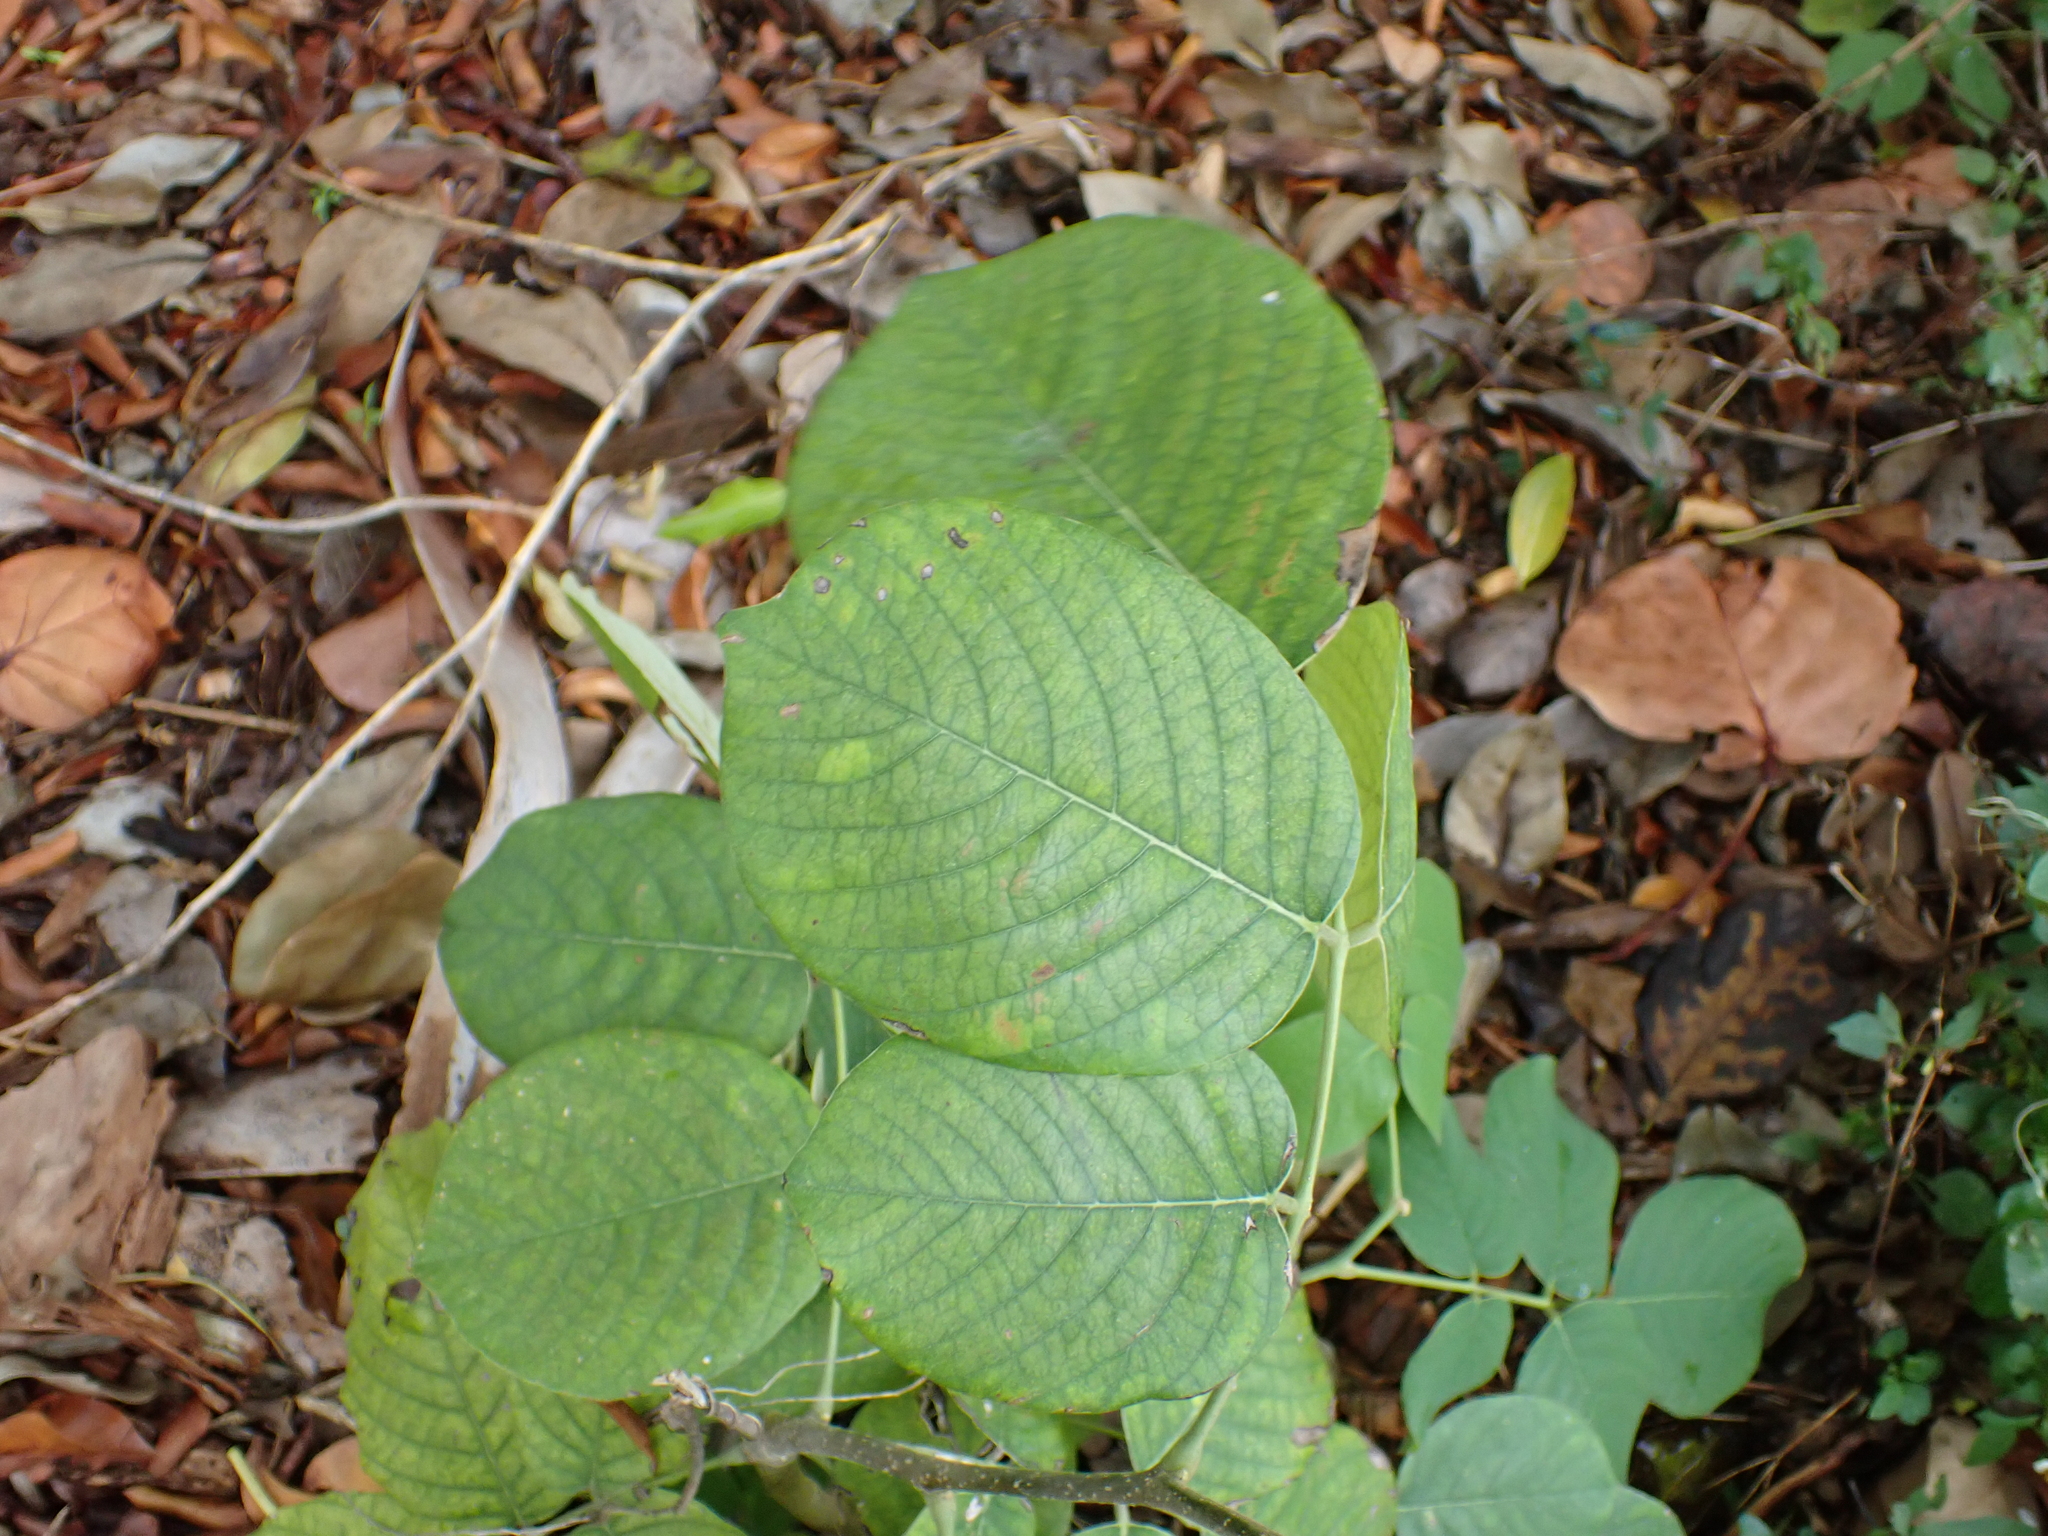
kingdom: Plantae
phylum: Tracheophyta
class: Magnoliopsida
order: Fabales
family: Fabaceae
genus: Piscidia
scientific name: Piscidia piscipula
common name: Florida fishpoison tree
